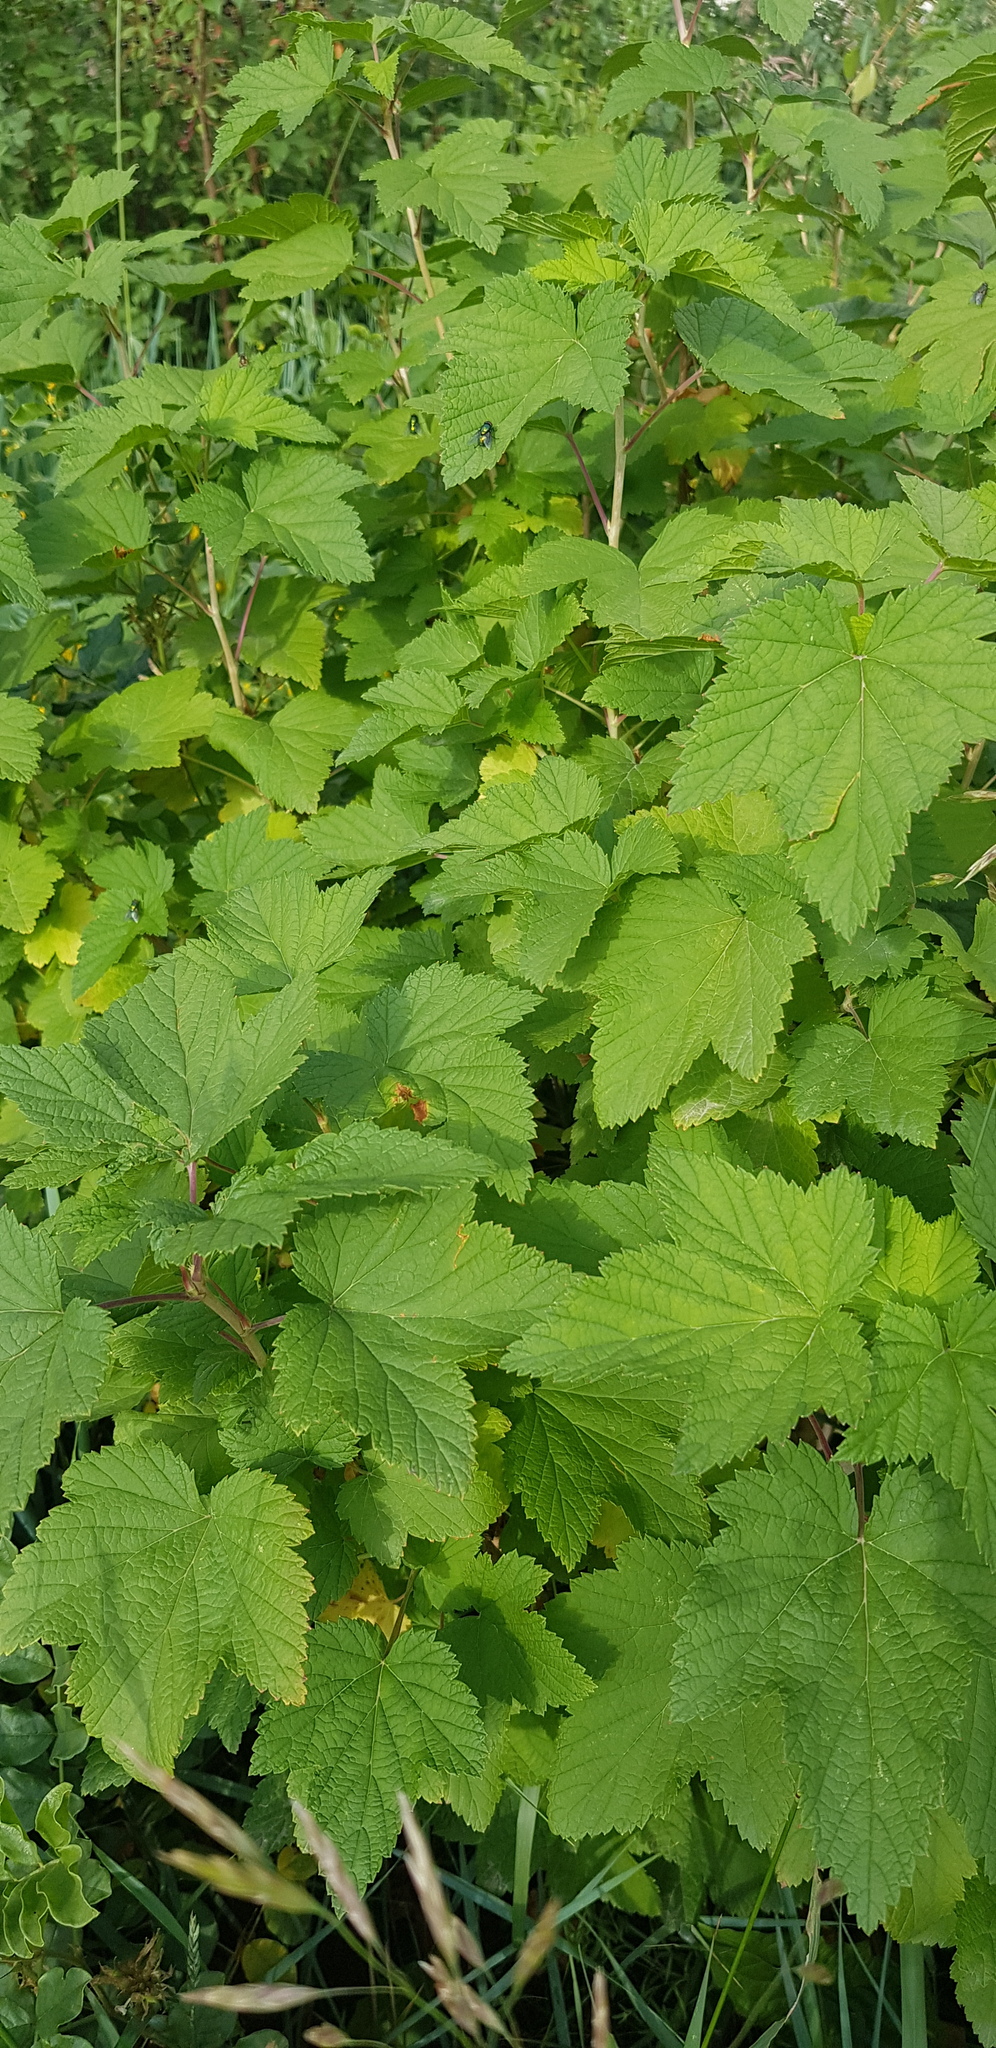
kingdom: Plantae
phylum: Tracheophyta
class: Magnoliopsida
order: Saxifragales
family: Grossulariaceae
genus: Ribes
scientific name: Ribes rubrum
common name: Red currant
